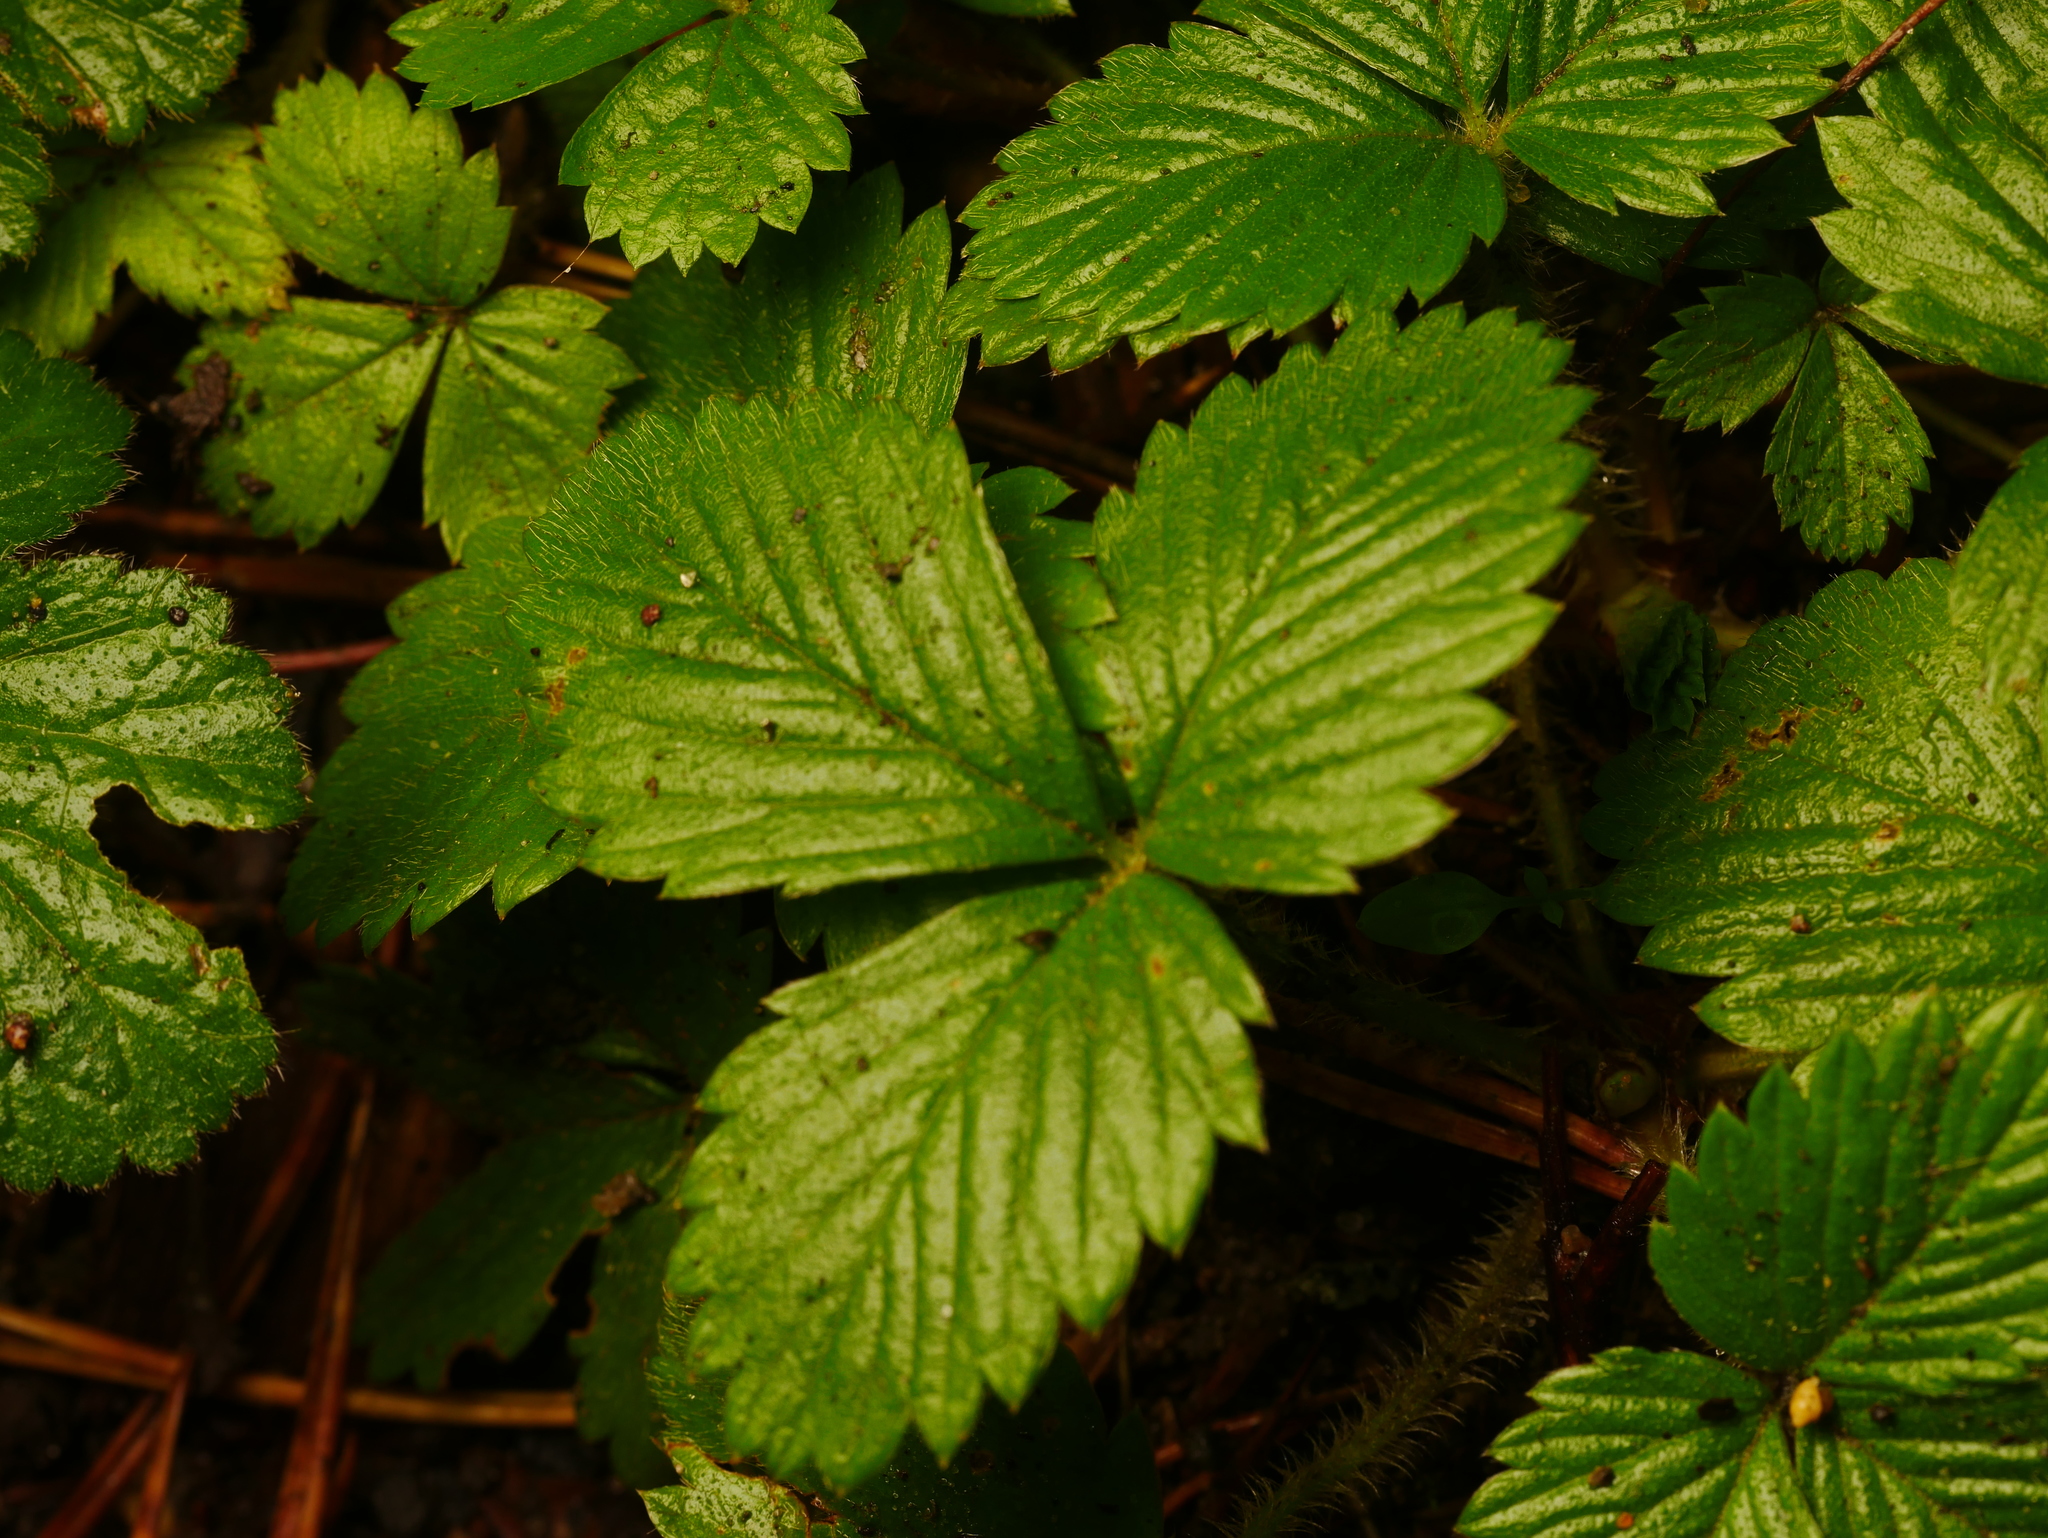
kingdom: Plantae
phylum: Tracheophyta
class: Magnoliopsida
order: Rosales
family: Rosaceae
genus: Fragaria
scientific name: Fragaria vesca
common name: Wild strawberry
